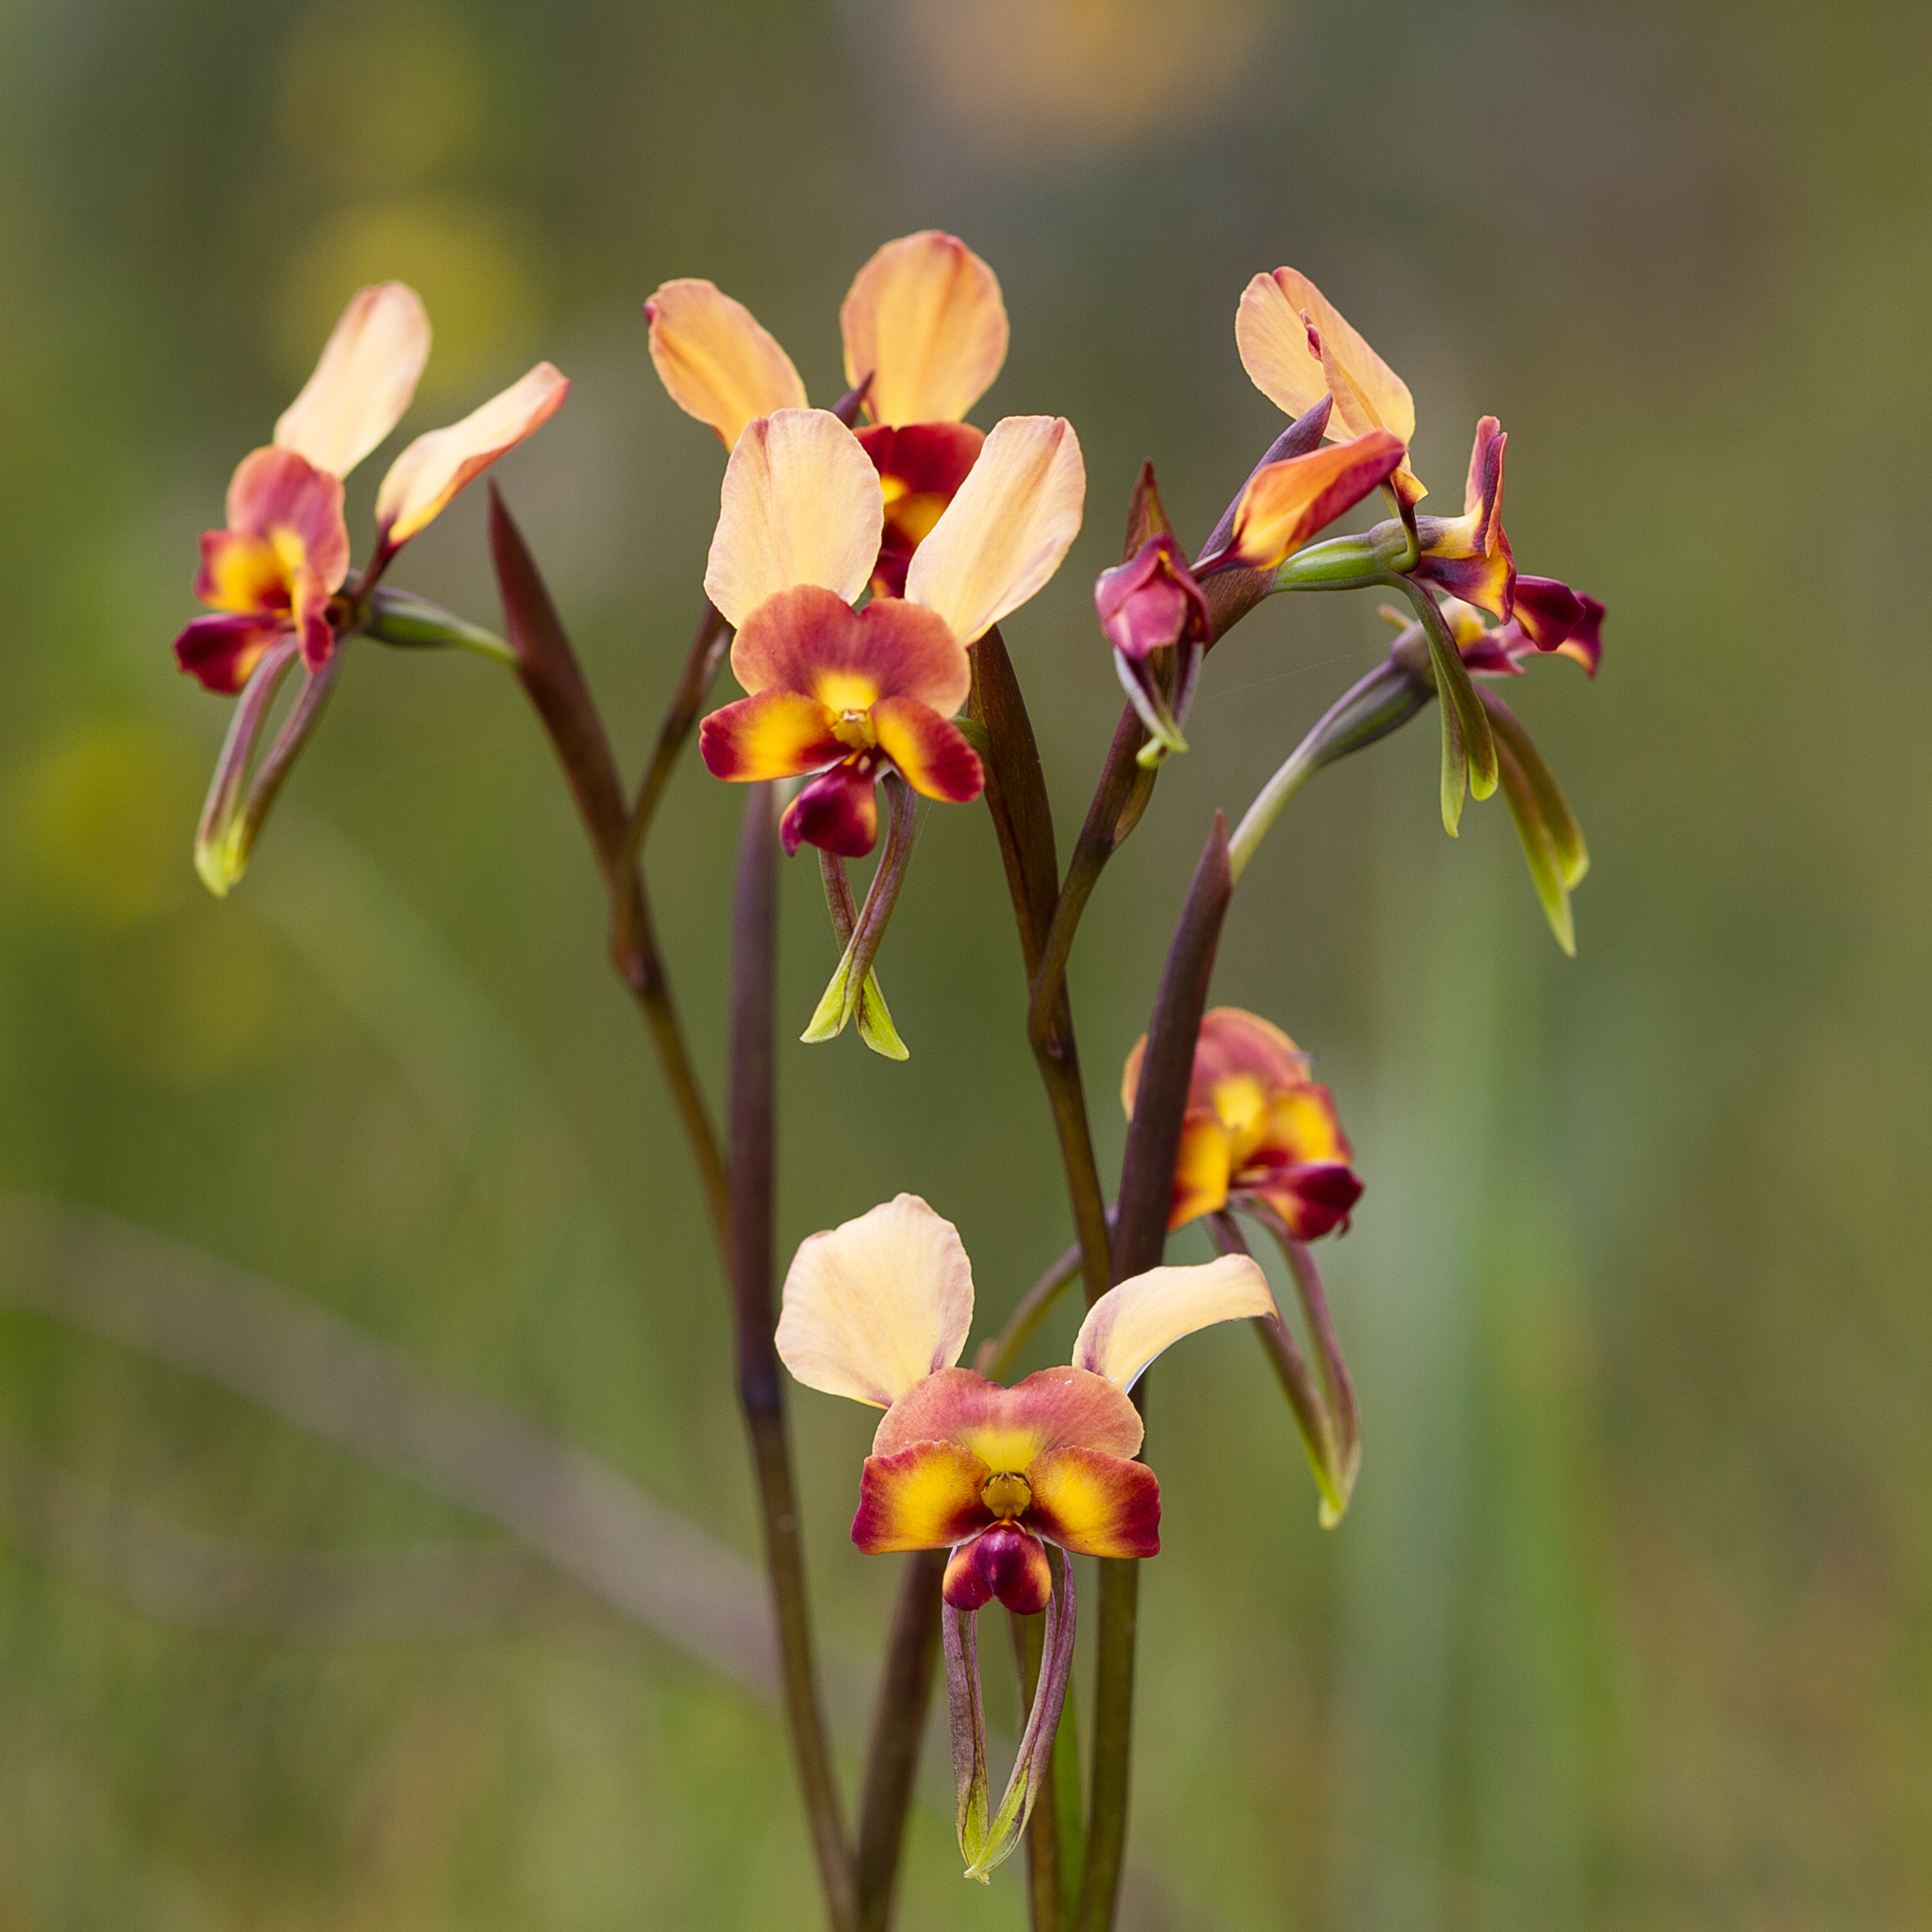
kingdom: Plantae
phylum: Tracheophyta
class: Liliopsida
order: Asparagales
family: Orchidaceae
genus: Diuris
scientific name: Diuris orientis
